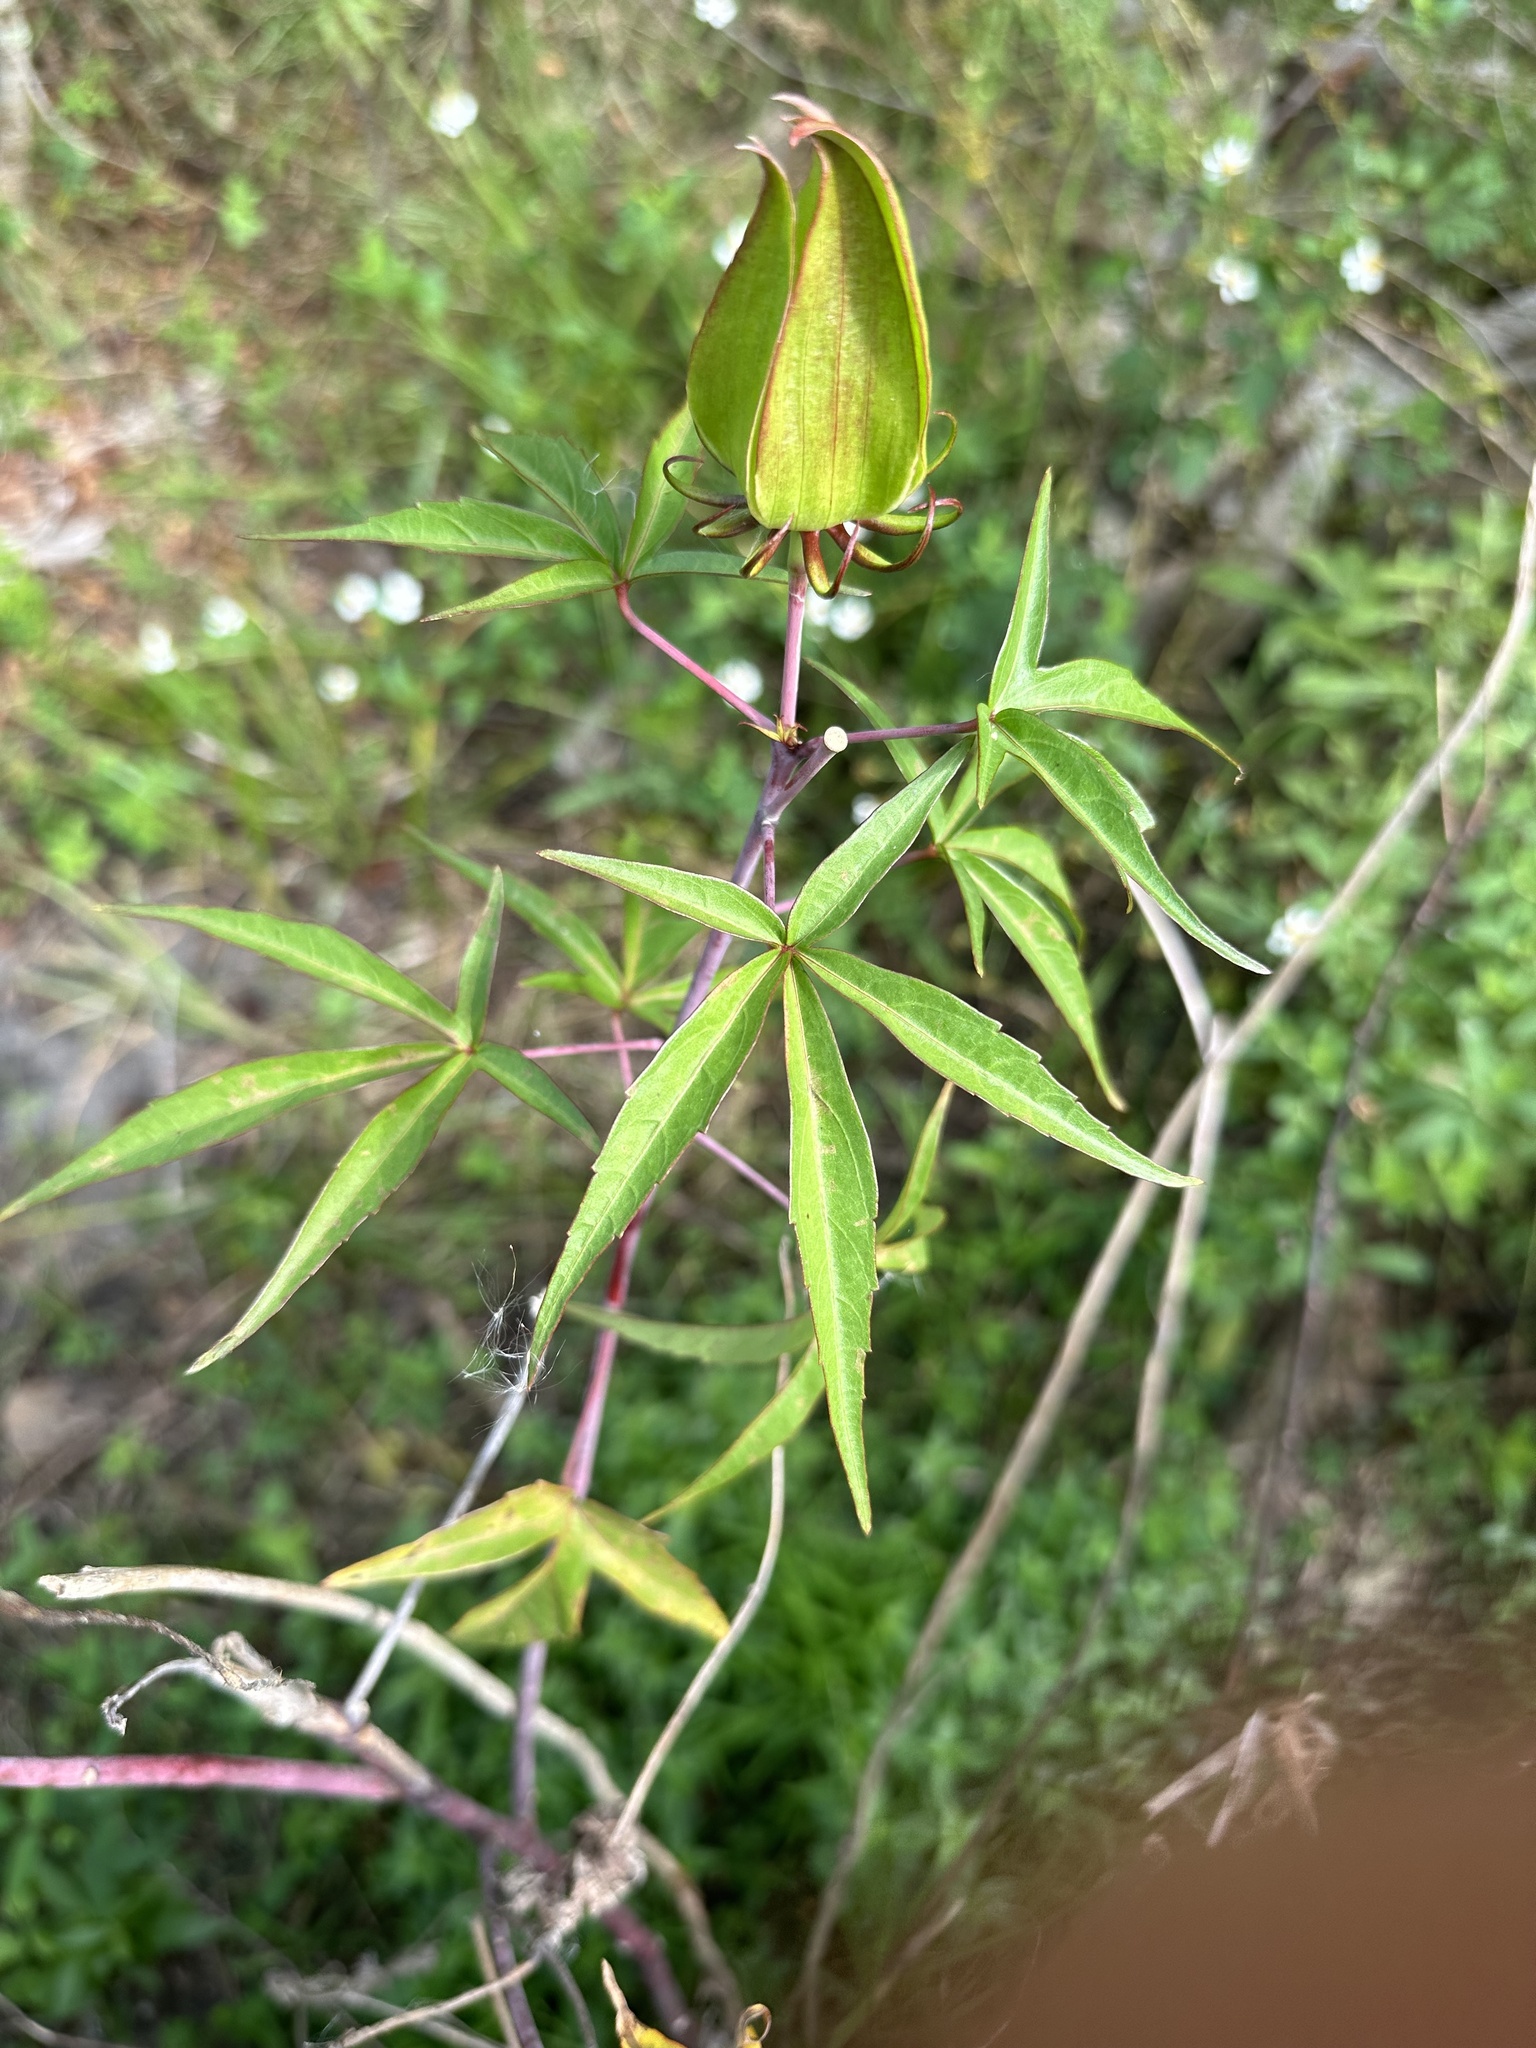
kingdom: Plantae
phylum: Tracheophyta
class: Magnoliopsida
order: Malvales
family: Malvaceae
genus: Hibiscus
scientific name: Hibiscus coccineus
